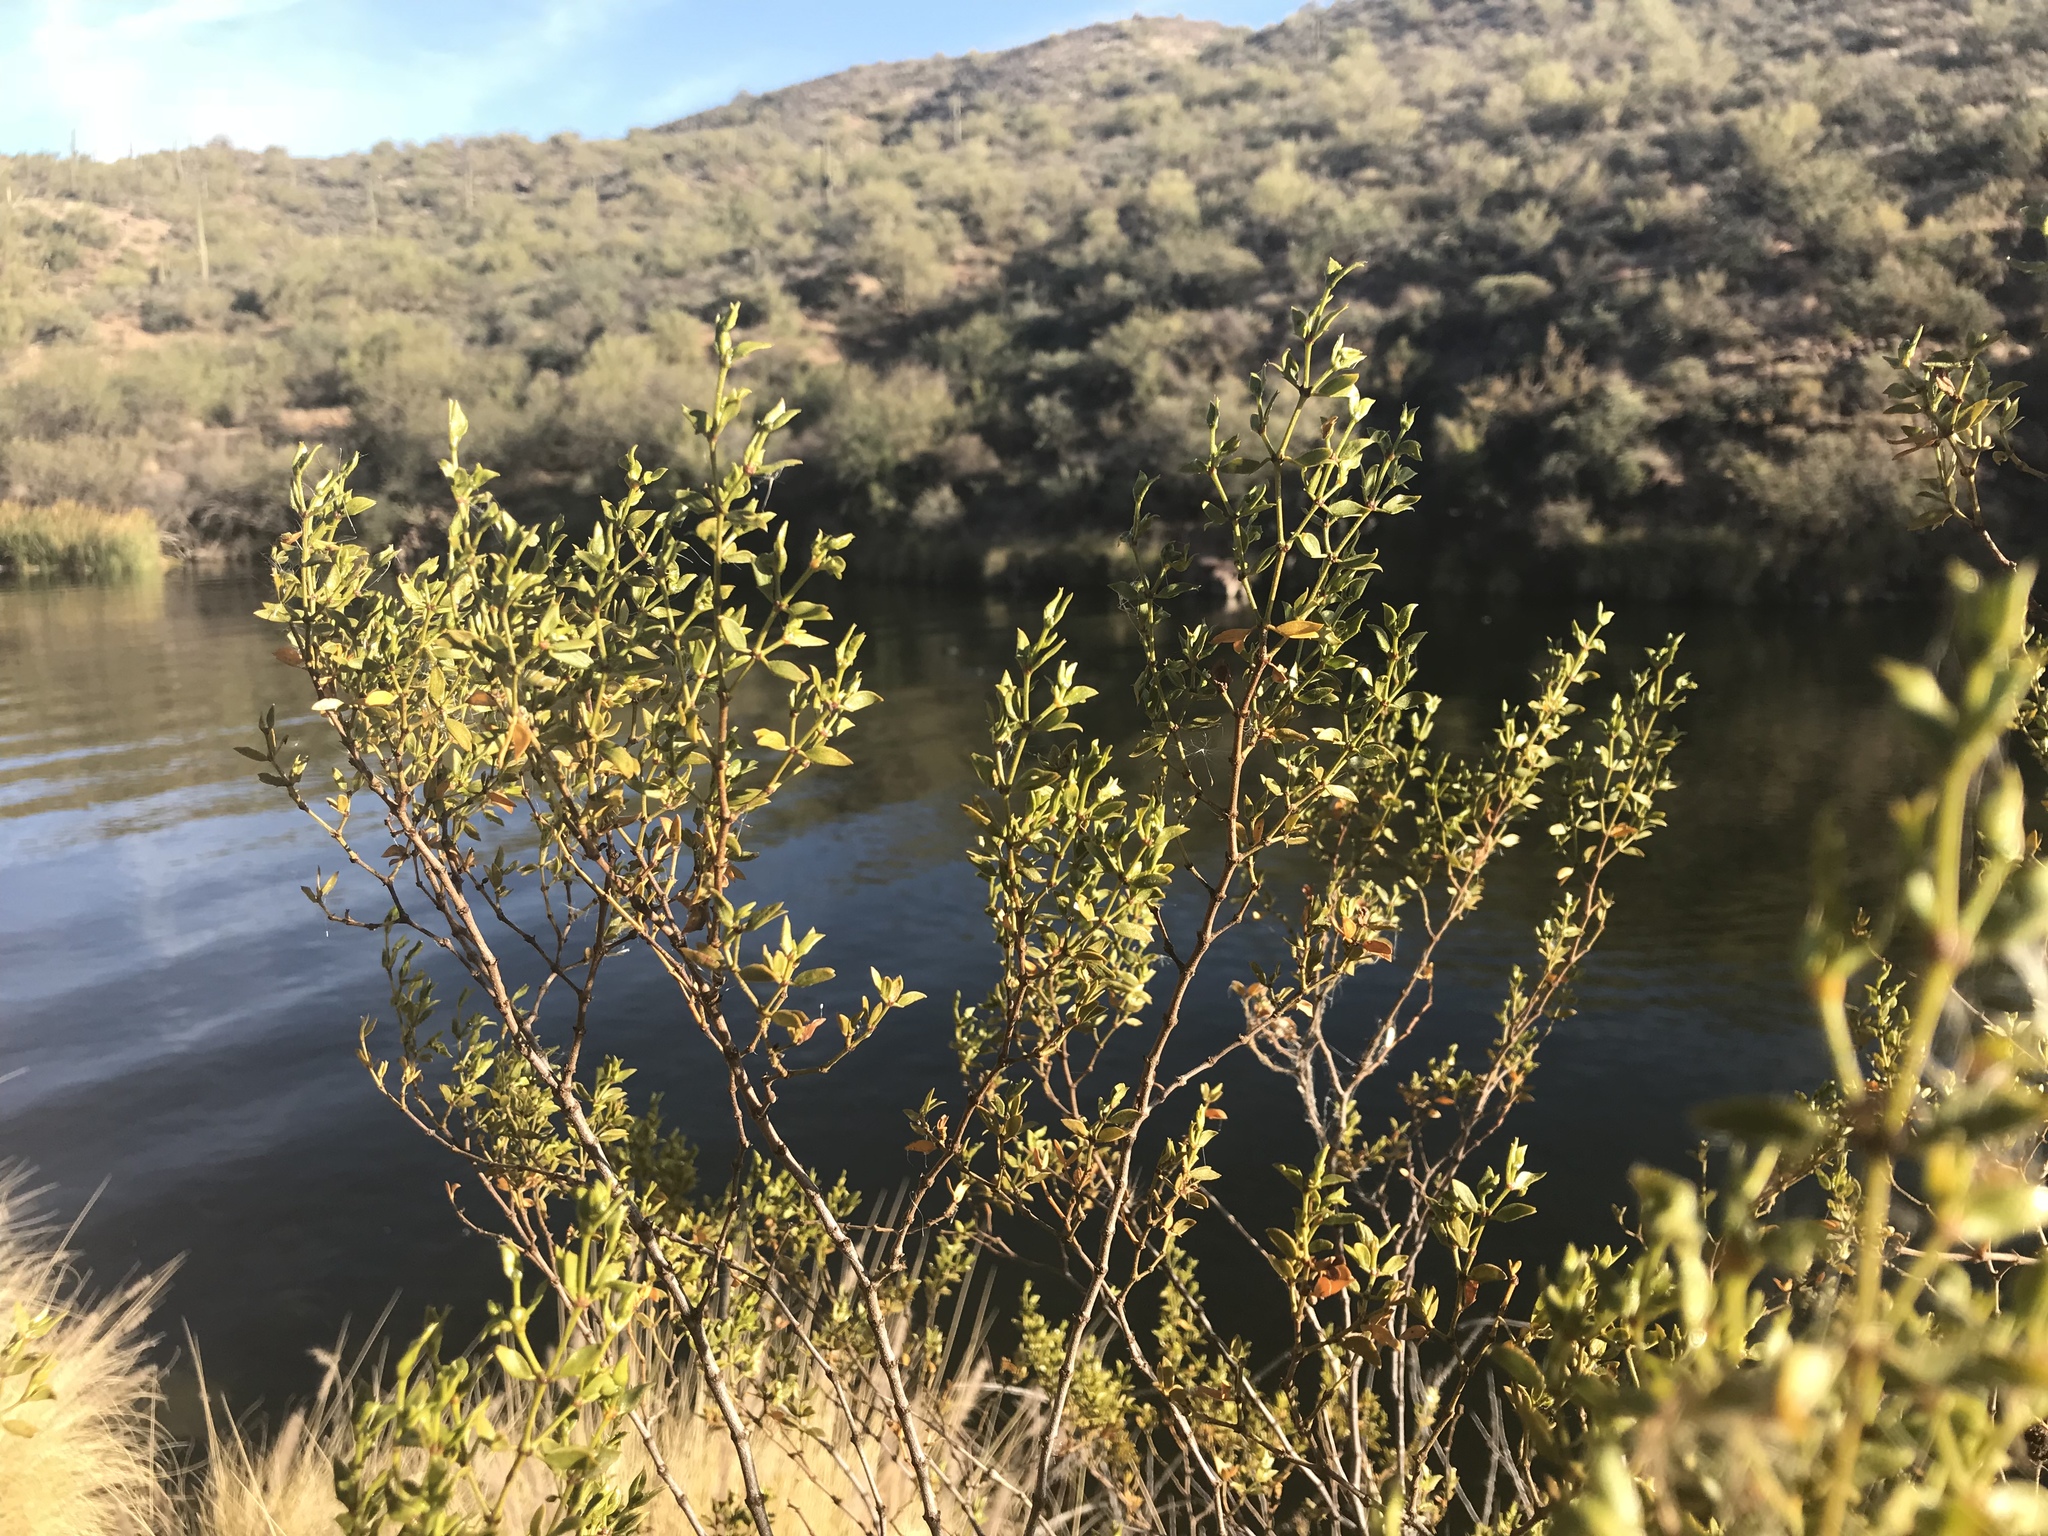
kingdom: Plantae
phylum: Tracheophyta
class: Magnoliopsida
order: Zygophyllales
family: Zygophyllaceae
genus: Larrea
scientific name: Larrea tridentata
